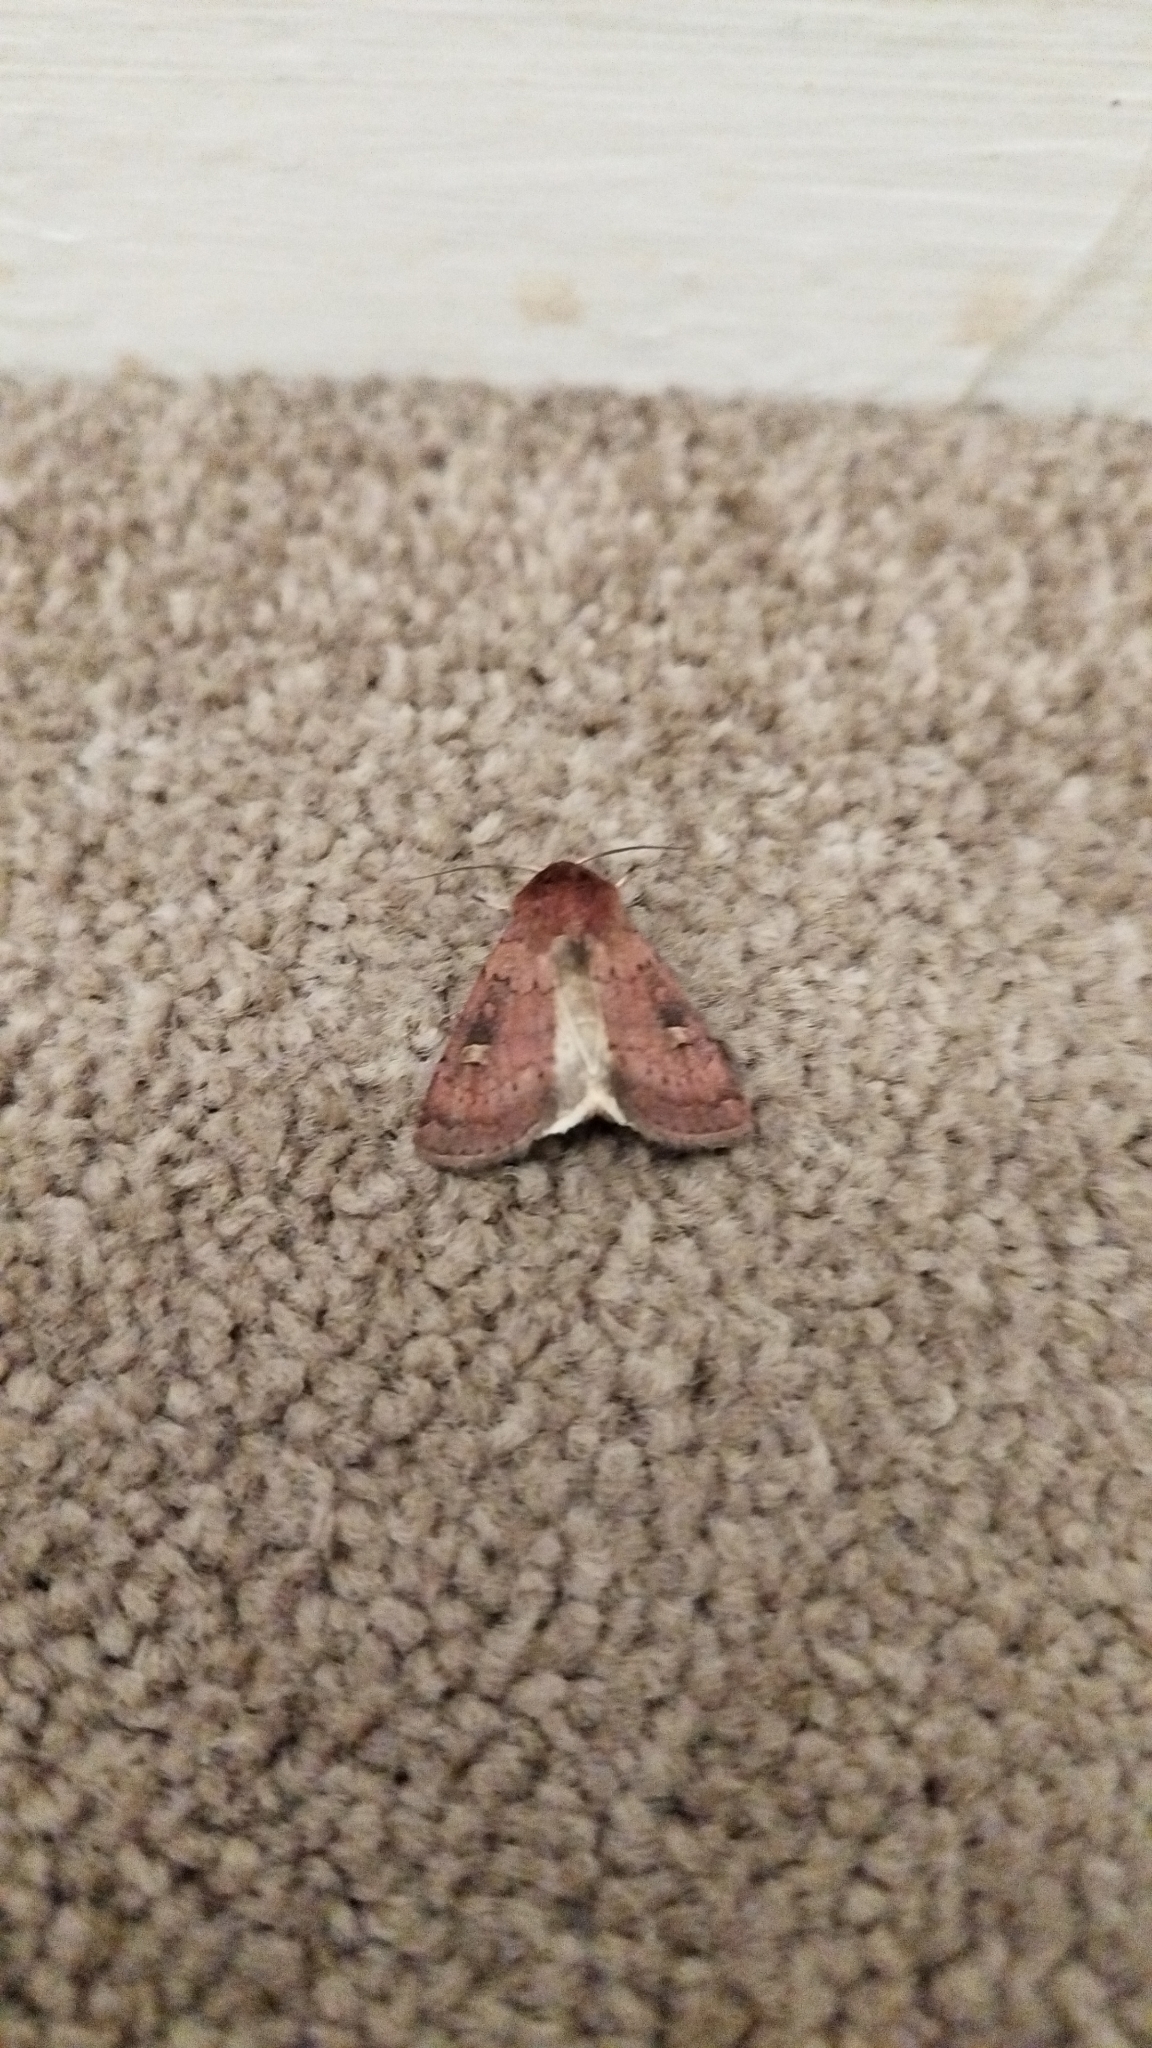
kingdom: Animalia
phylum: Arthropoda
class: Insecta
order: Lepidoptera
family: Noctuidae
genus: Xestia
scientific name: Xestia xanthographa
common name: Square-spot rustic
